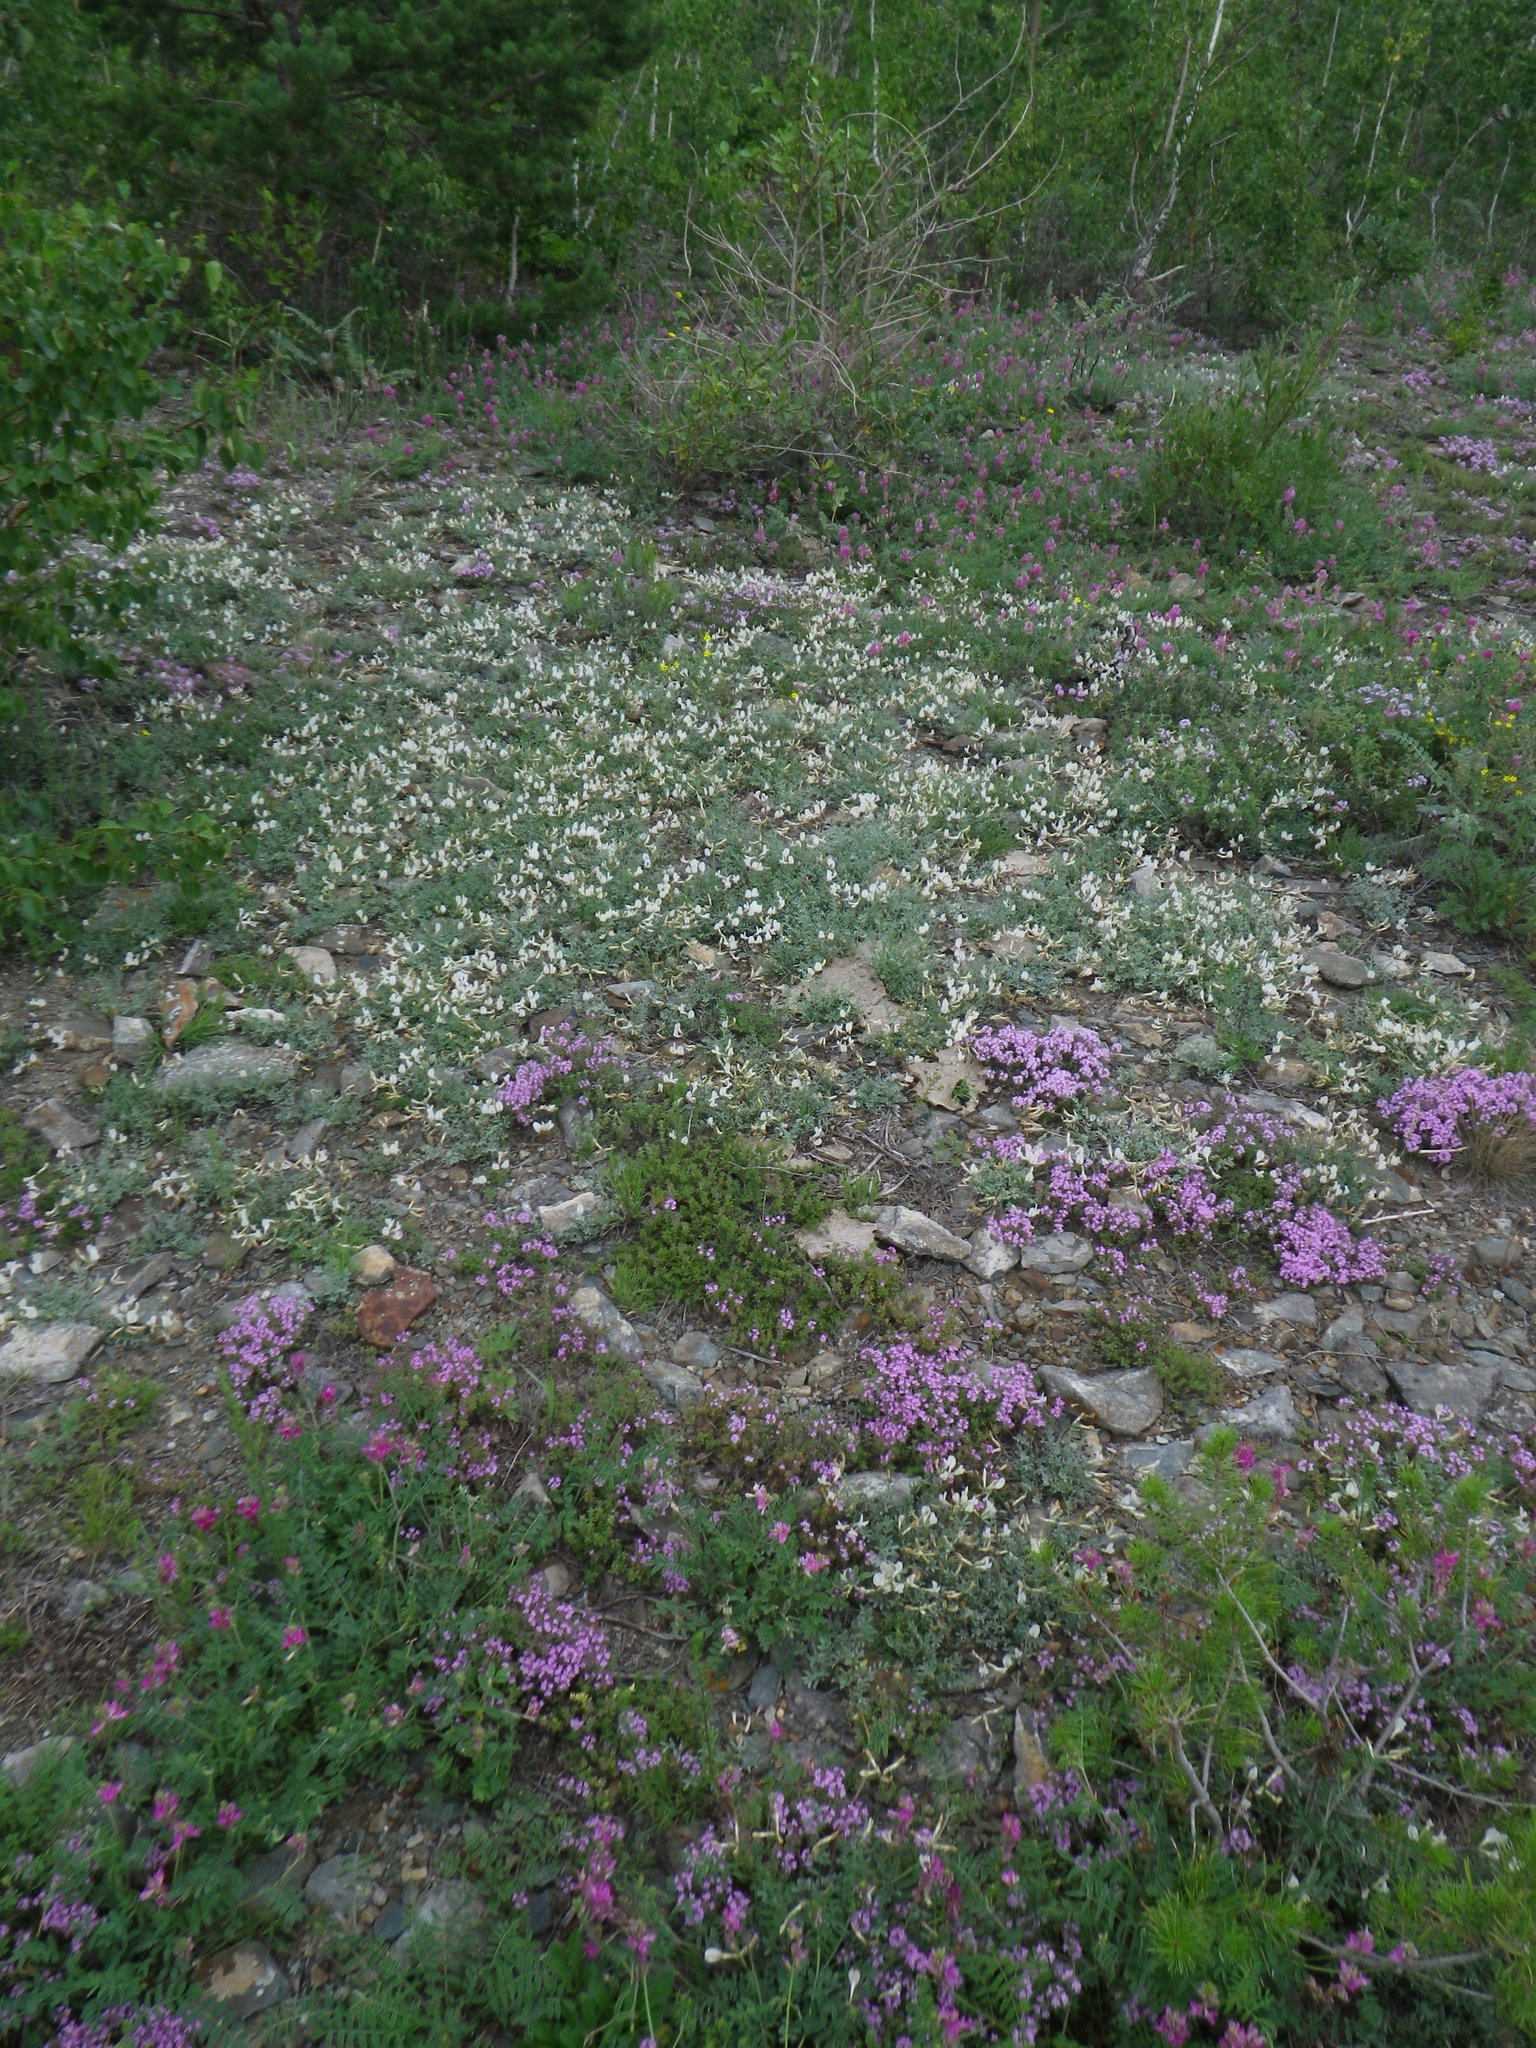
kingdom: Plantae
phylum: Tracheophyta
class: Magnoliopsida
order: Fabales
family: Fabaceae
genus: Astragalus
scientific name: Astragalus depauperatus
